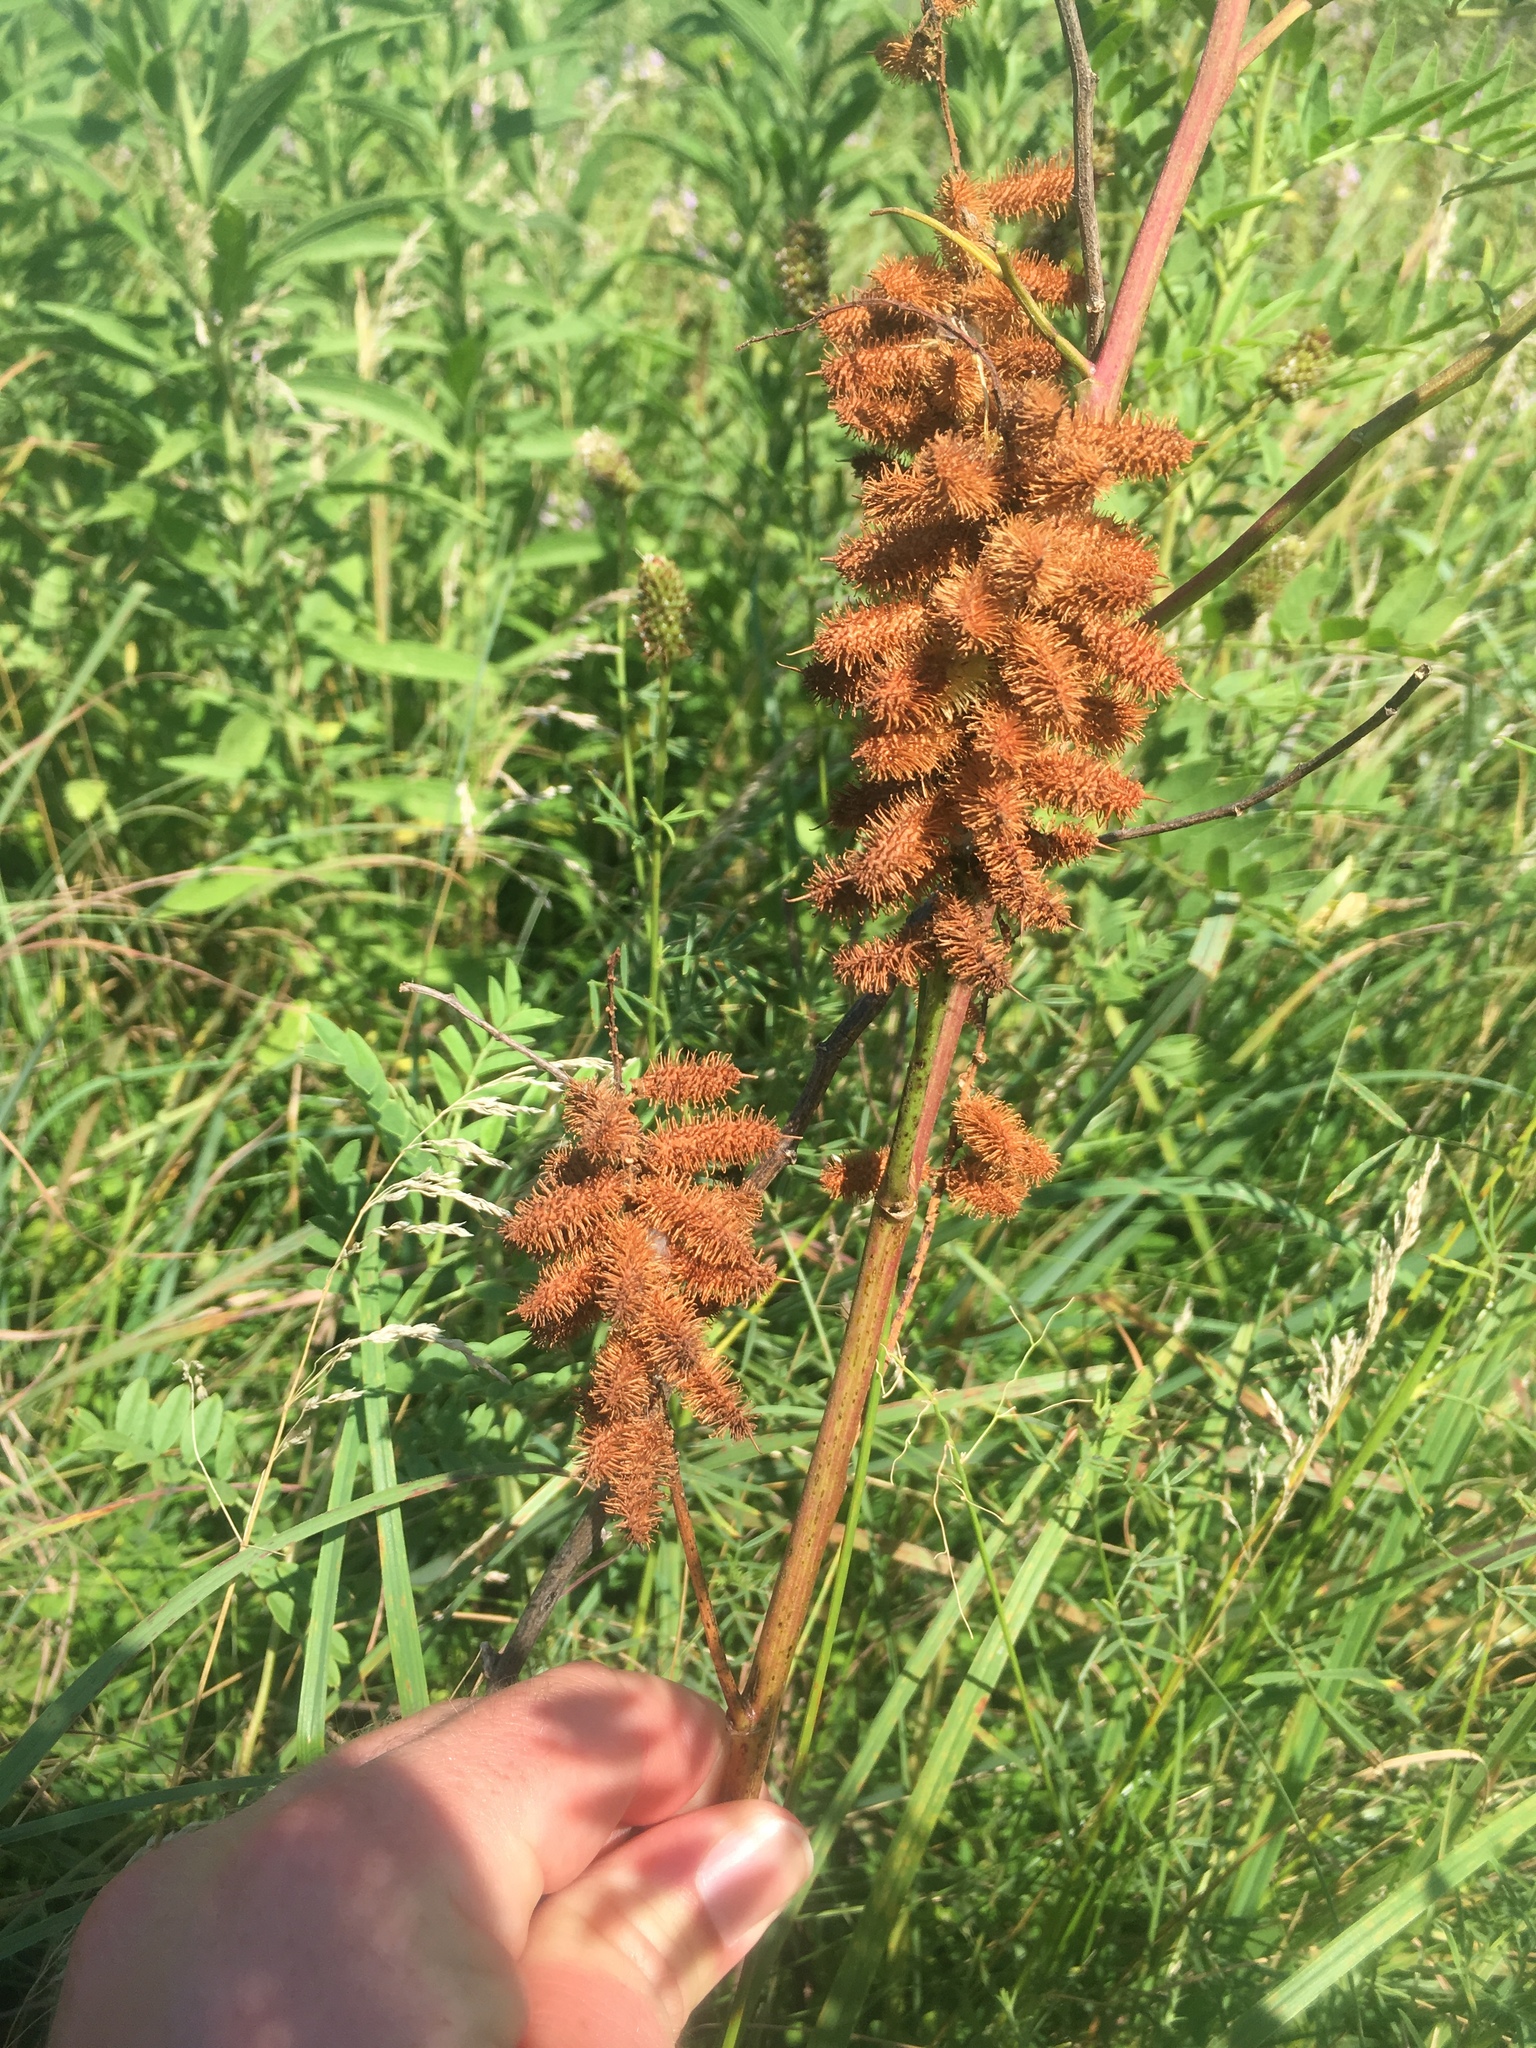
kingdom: Plantae
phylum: Tracheophyta
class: Magnoliopsida
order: Fabales
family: Fabaceae
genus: Glycyrrhiza
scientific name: Glycyrrhiza lepidota
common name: American liquorice
